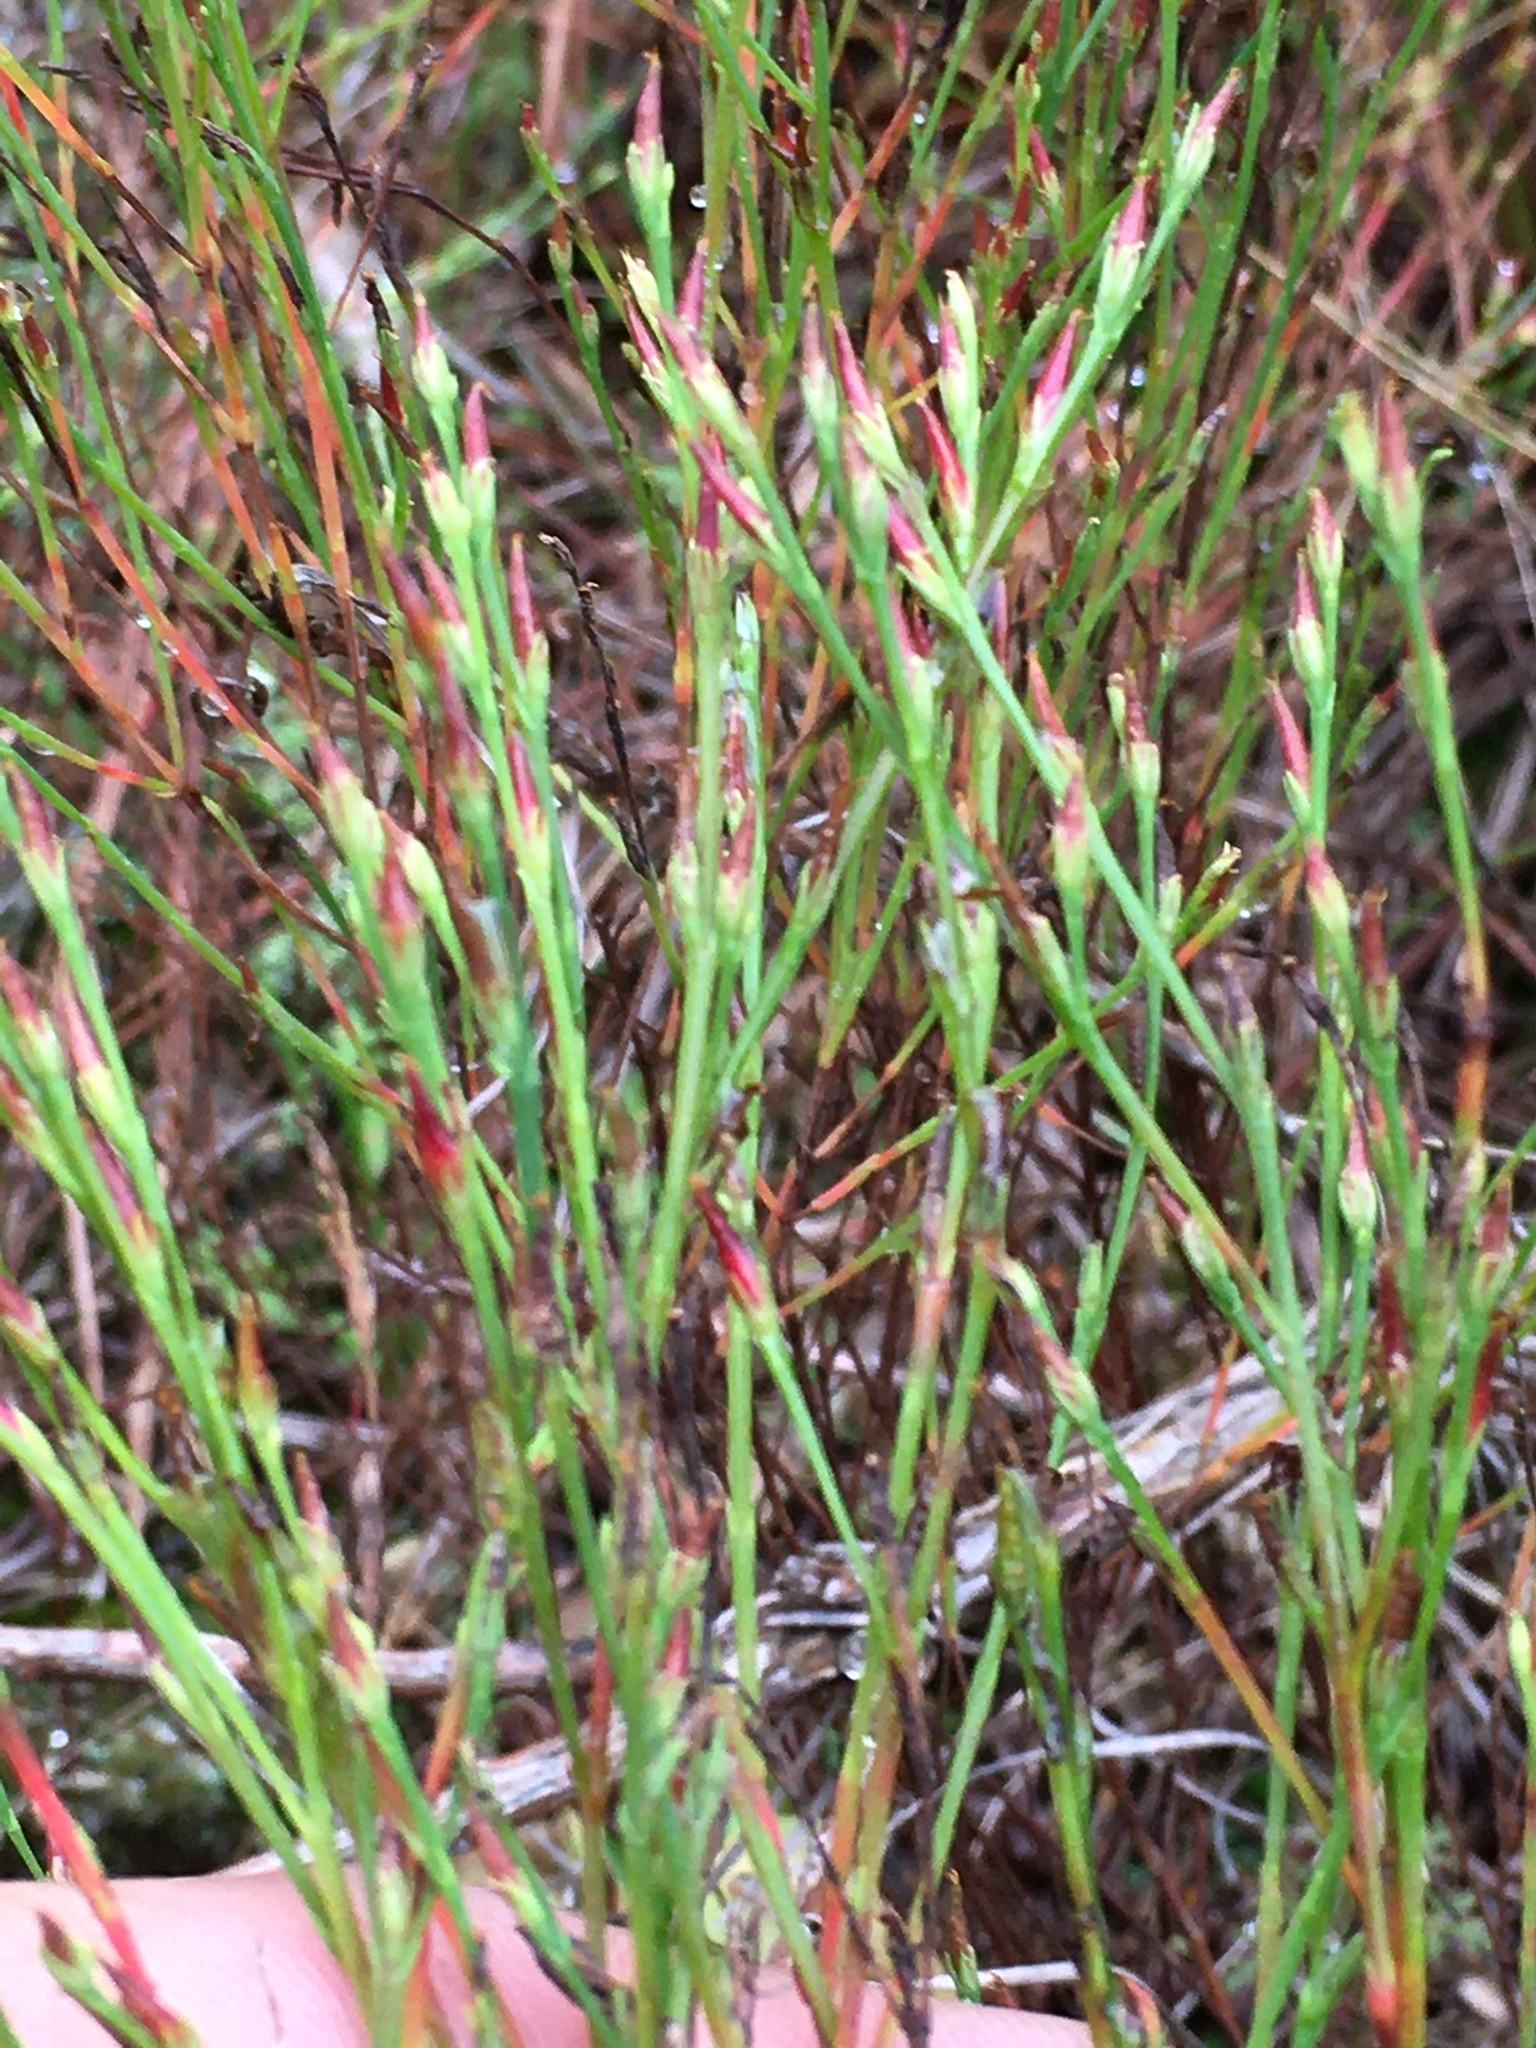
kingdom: Plantae
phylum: Tracheophyta
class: Magnoliopsida
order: Malpighiales
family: Hypericaceae
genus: Hypericum
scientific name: Hypericum gentianoides
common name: Gentian-leaved st. john's-wort
